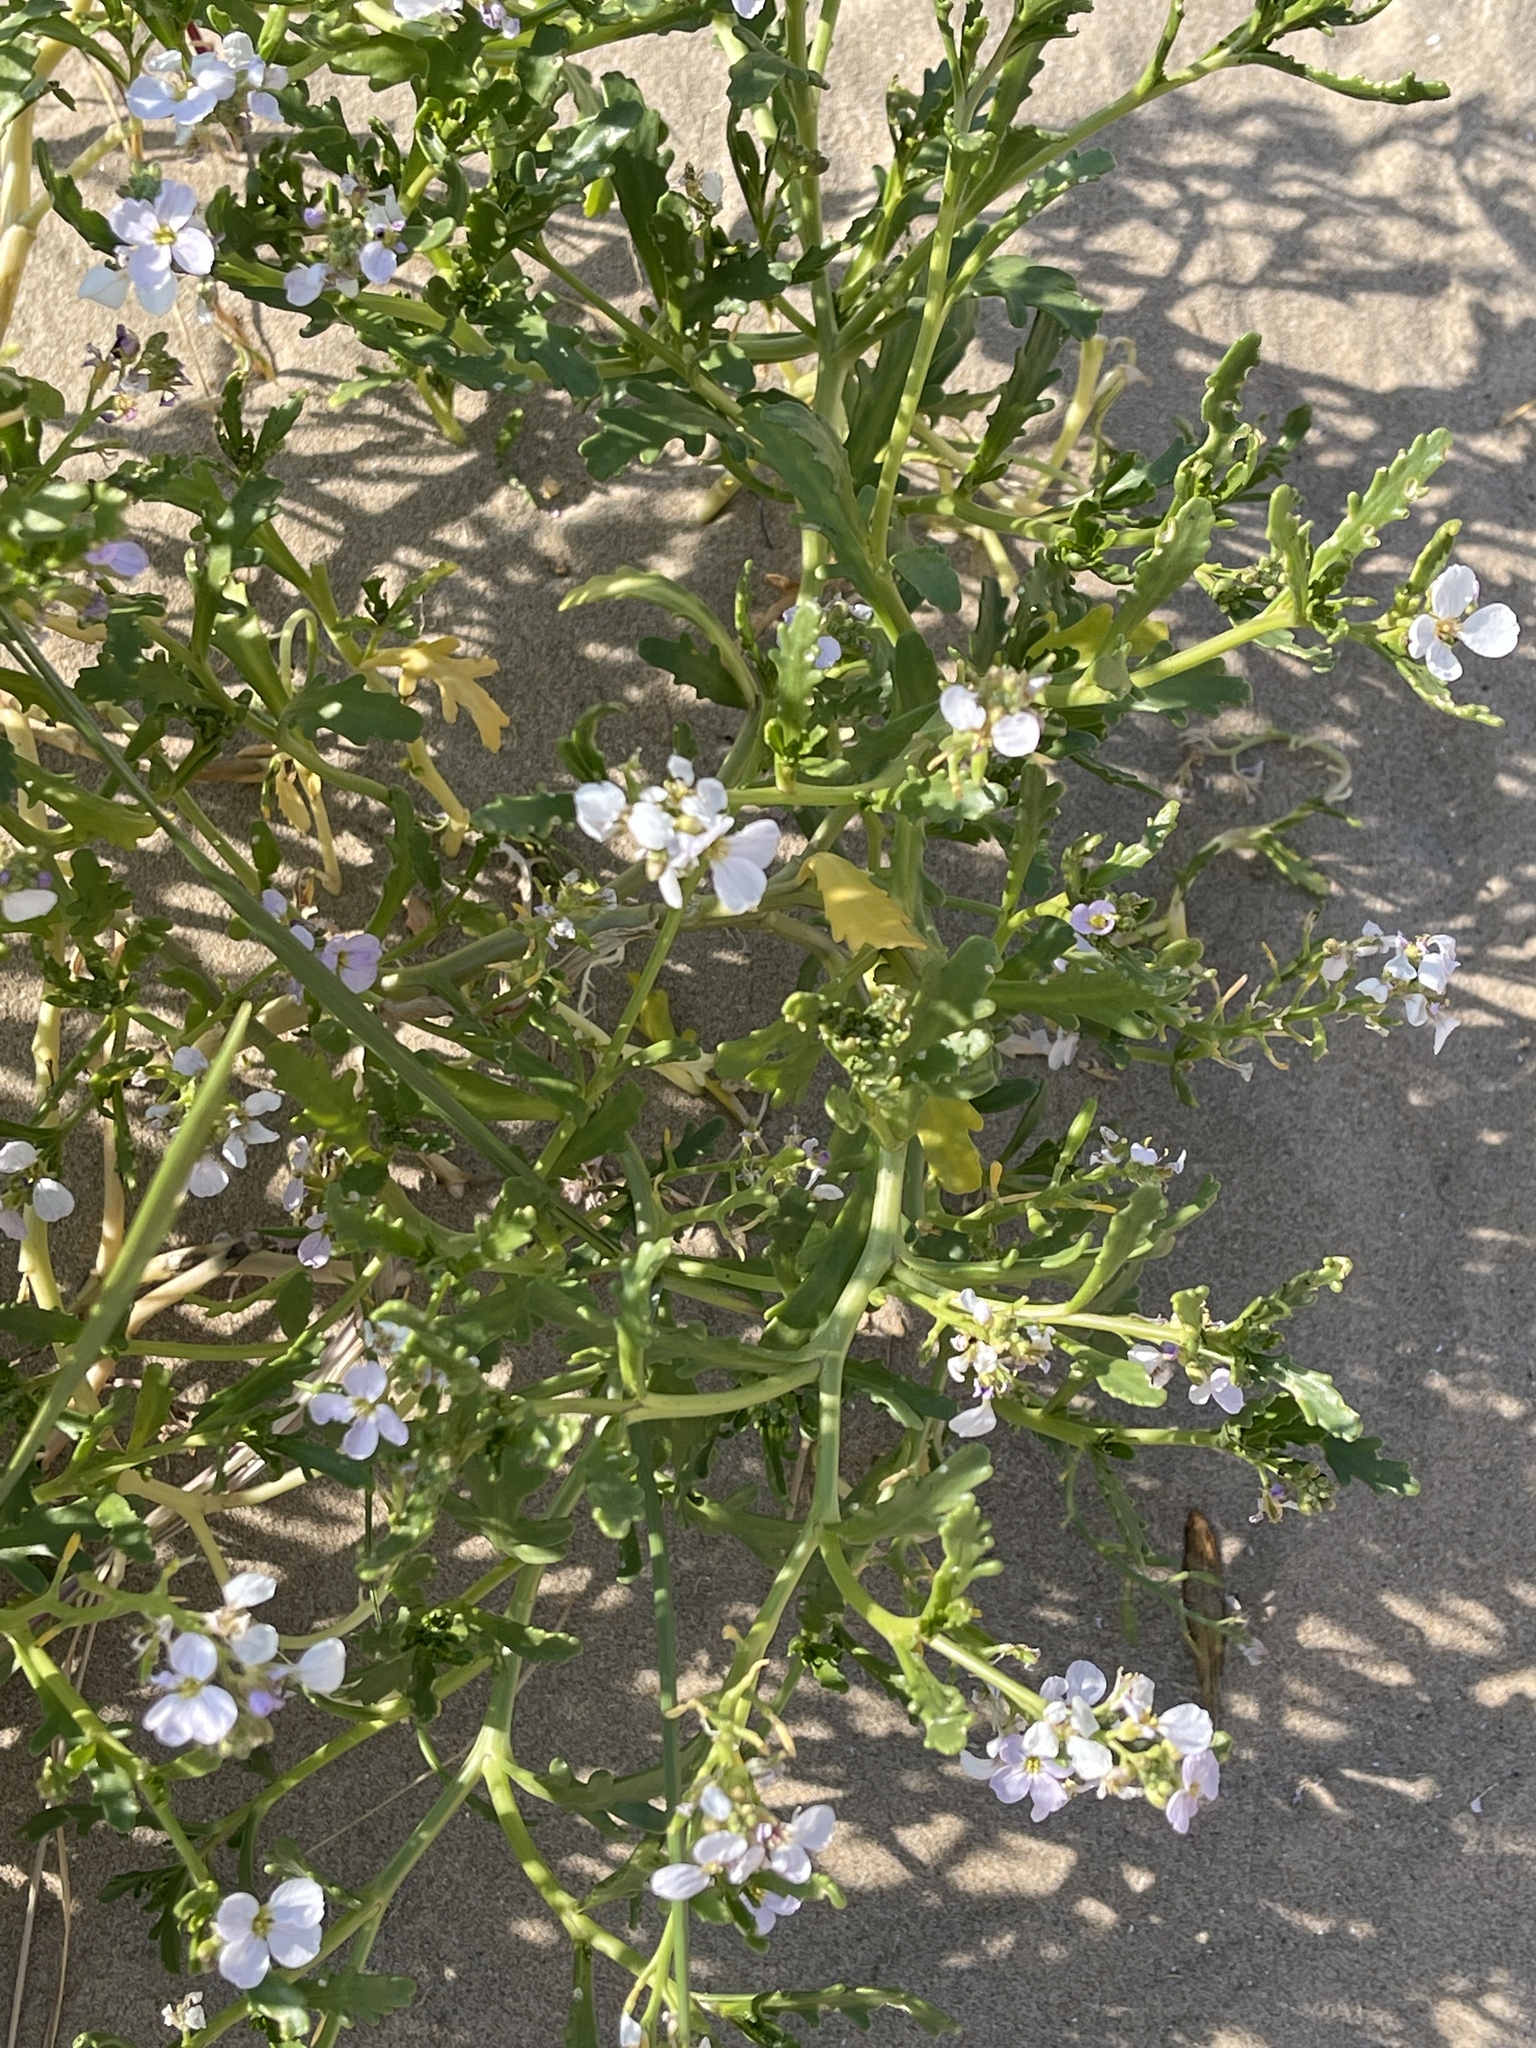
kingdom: Plantae
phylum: Tracheophyta
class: Magnoliopsida
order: Brassicales
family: Brassicaceae
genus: Cakile
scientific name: Cakile maritima
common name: Sea rocket
